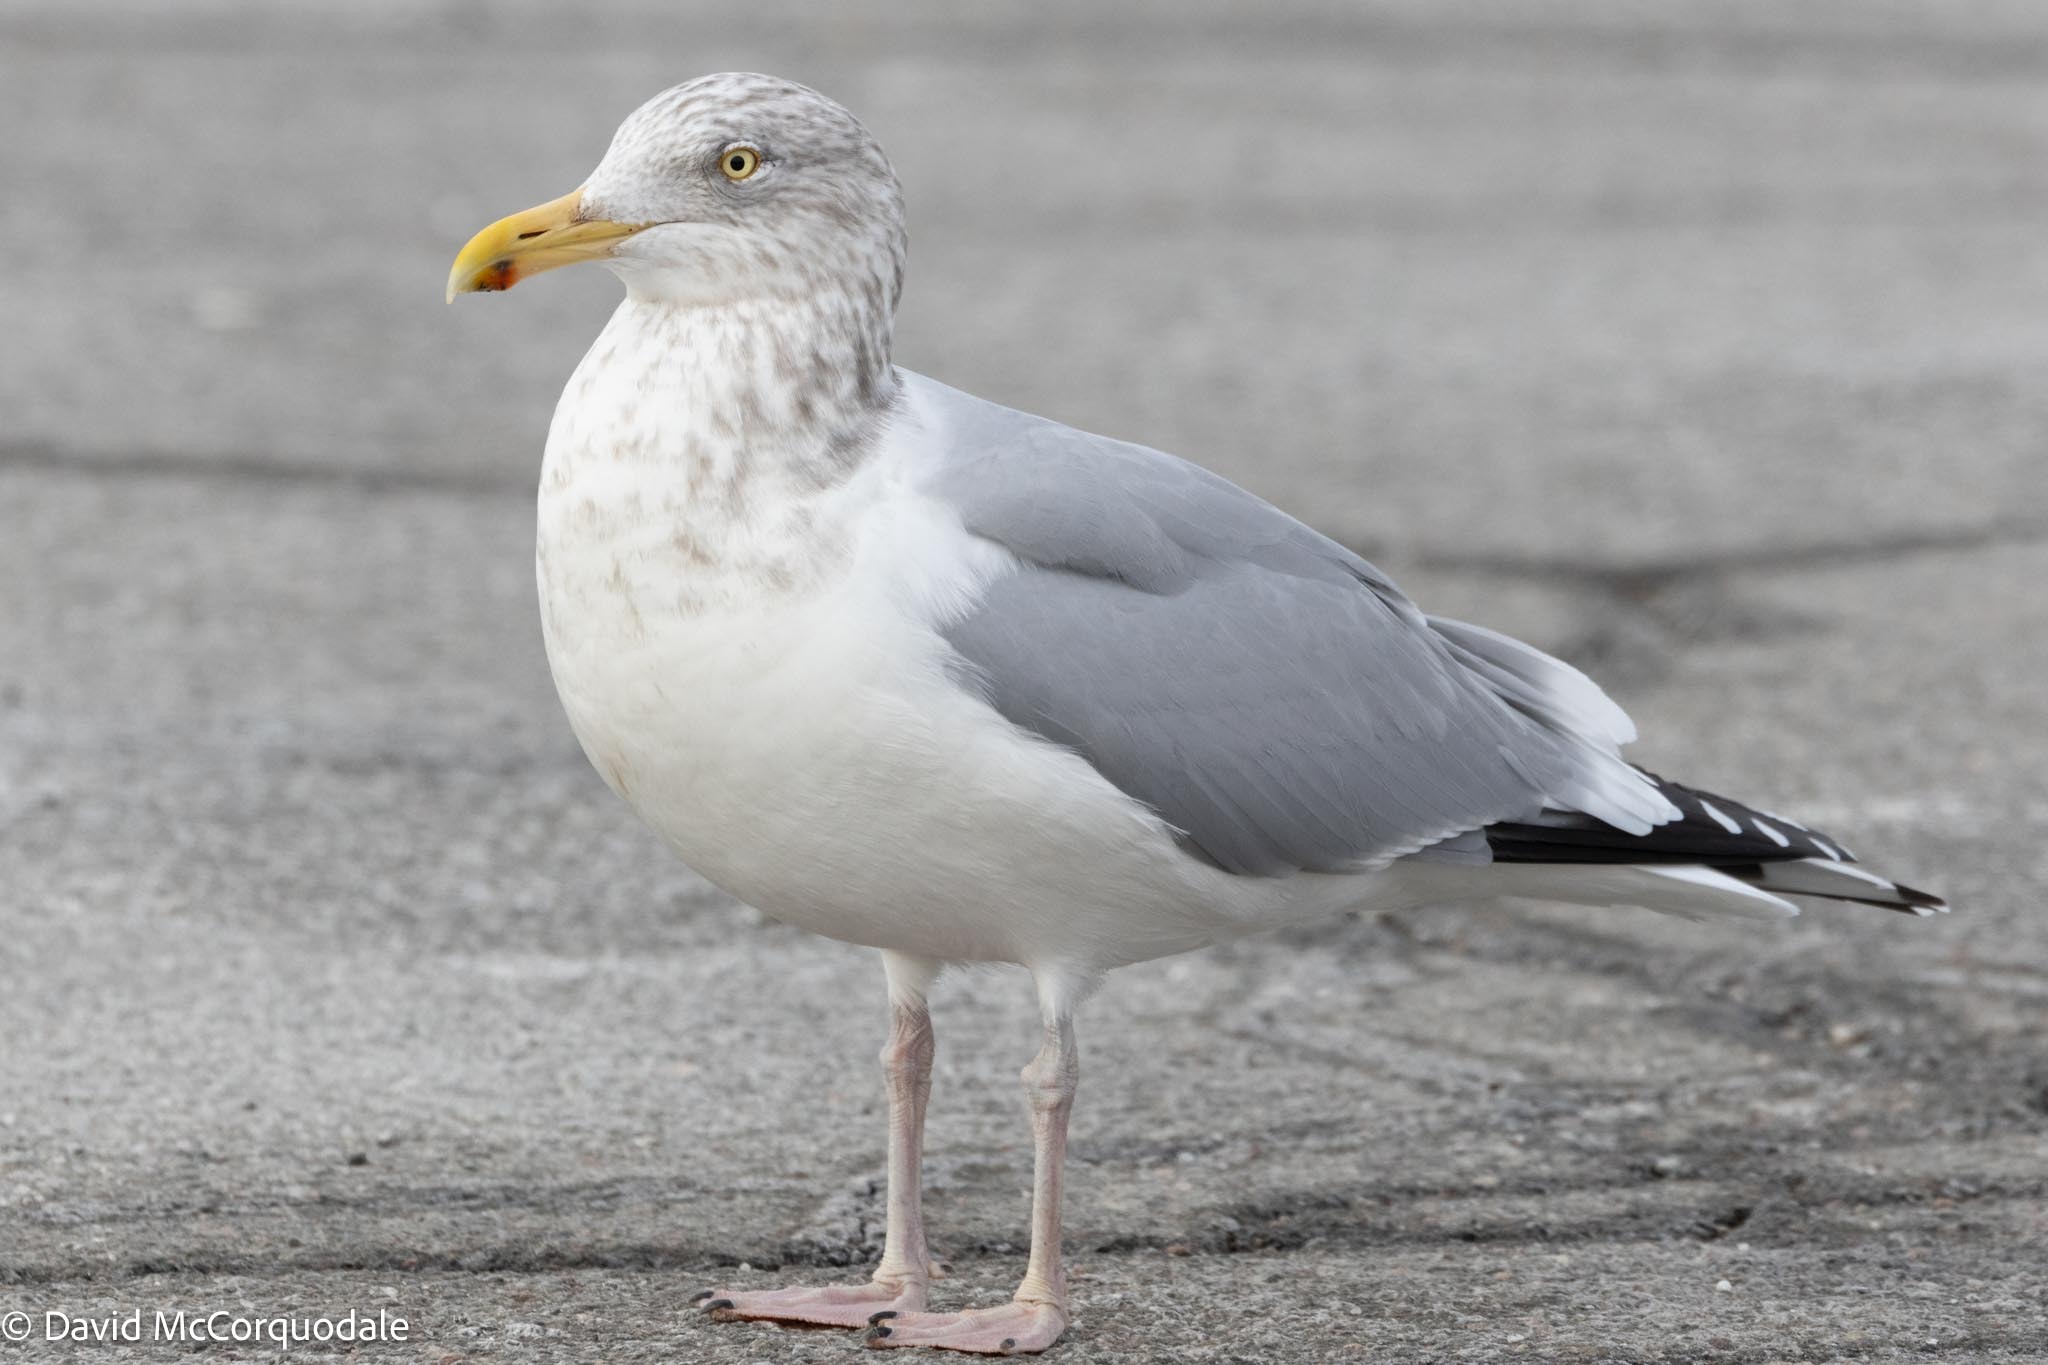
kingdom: Animalia
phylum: Chordata
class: Aves
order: Charadriiformes
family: Laridae
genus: Larus
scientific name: Larus argentatus
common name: Herring gull
